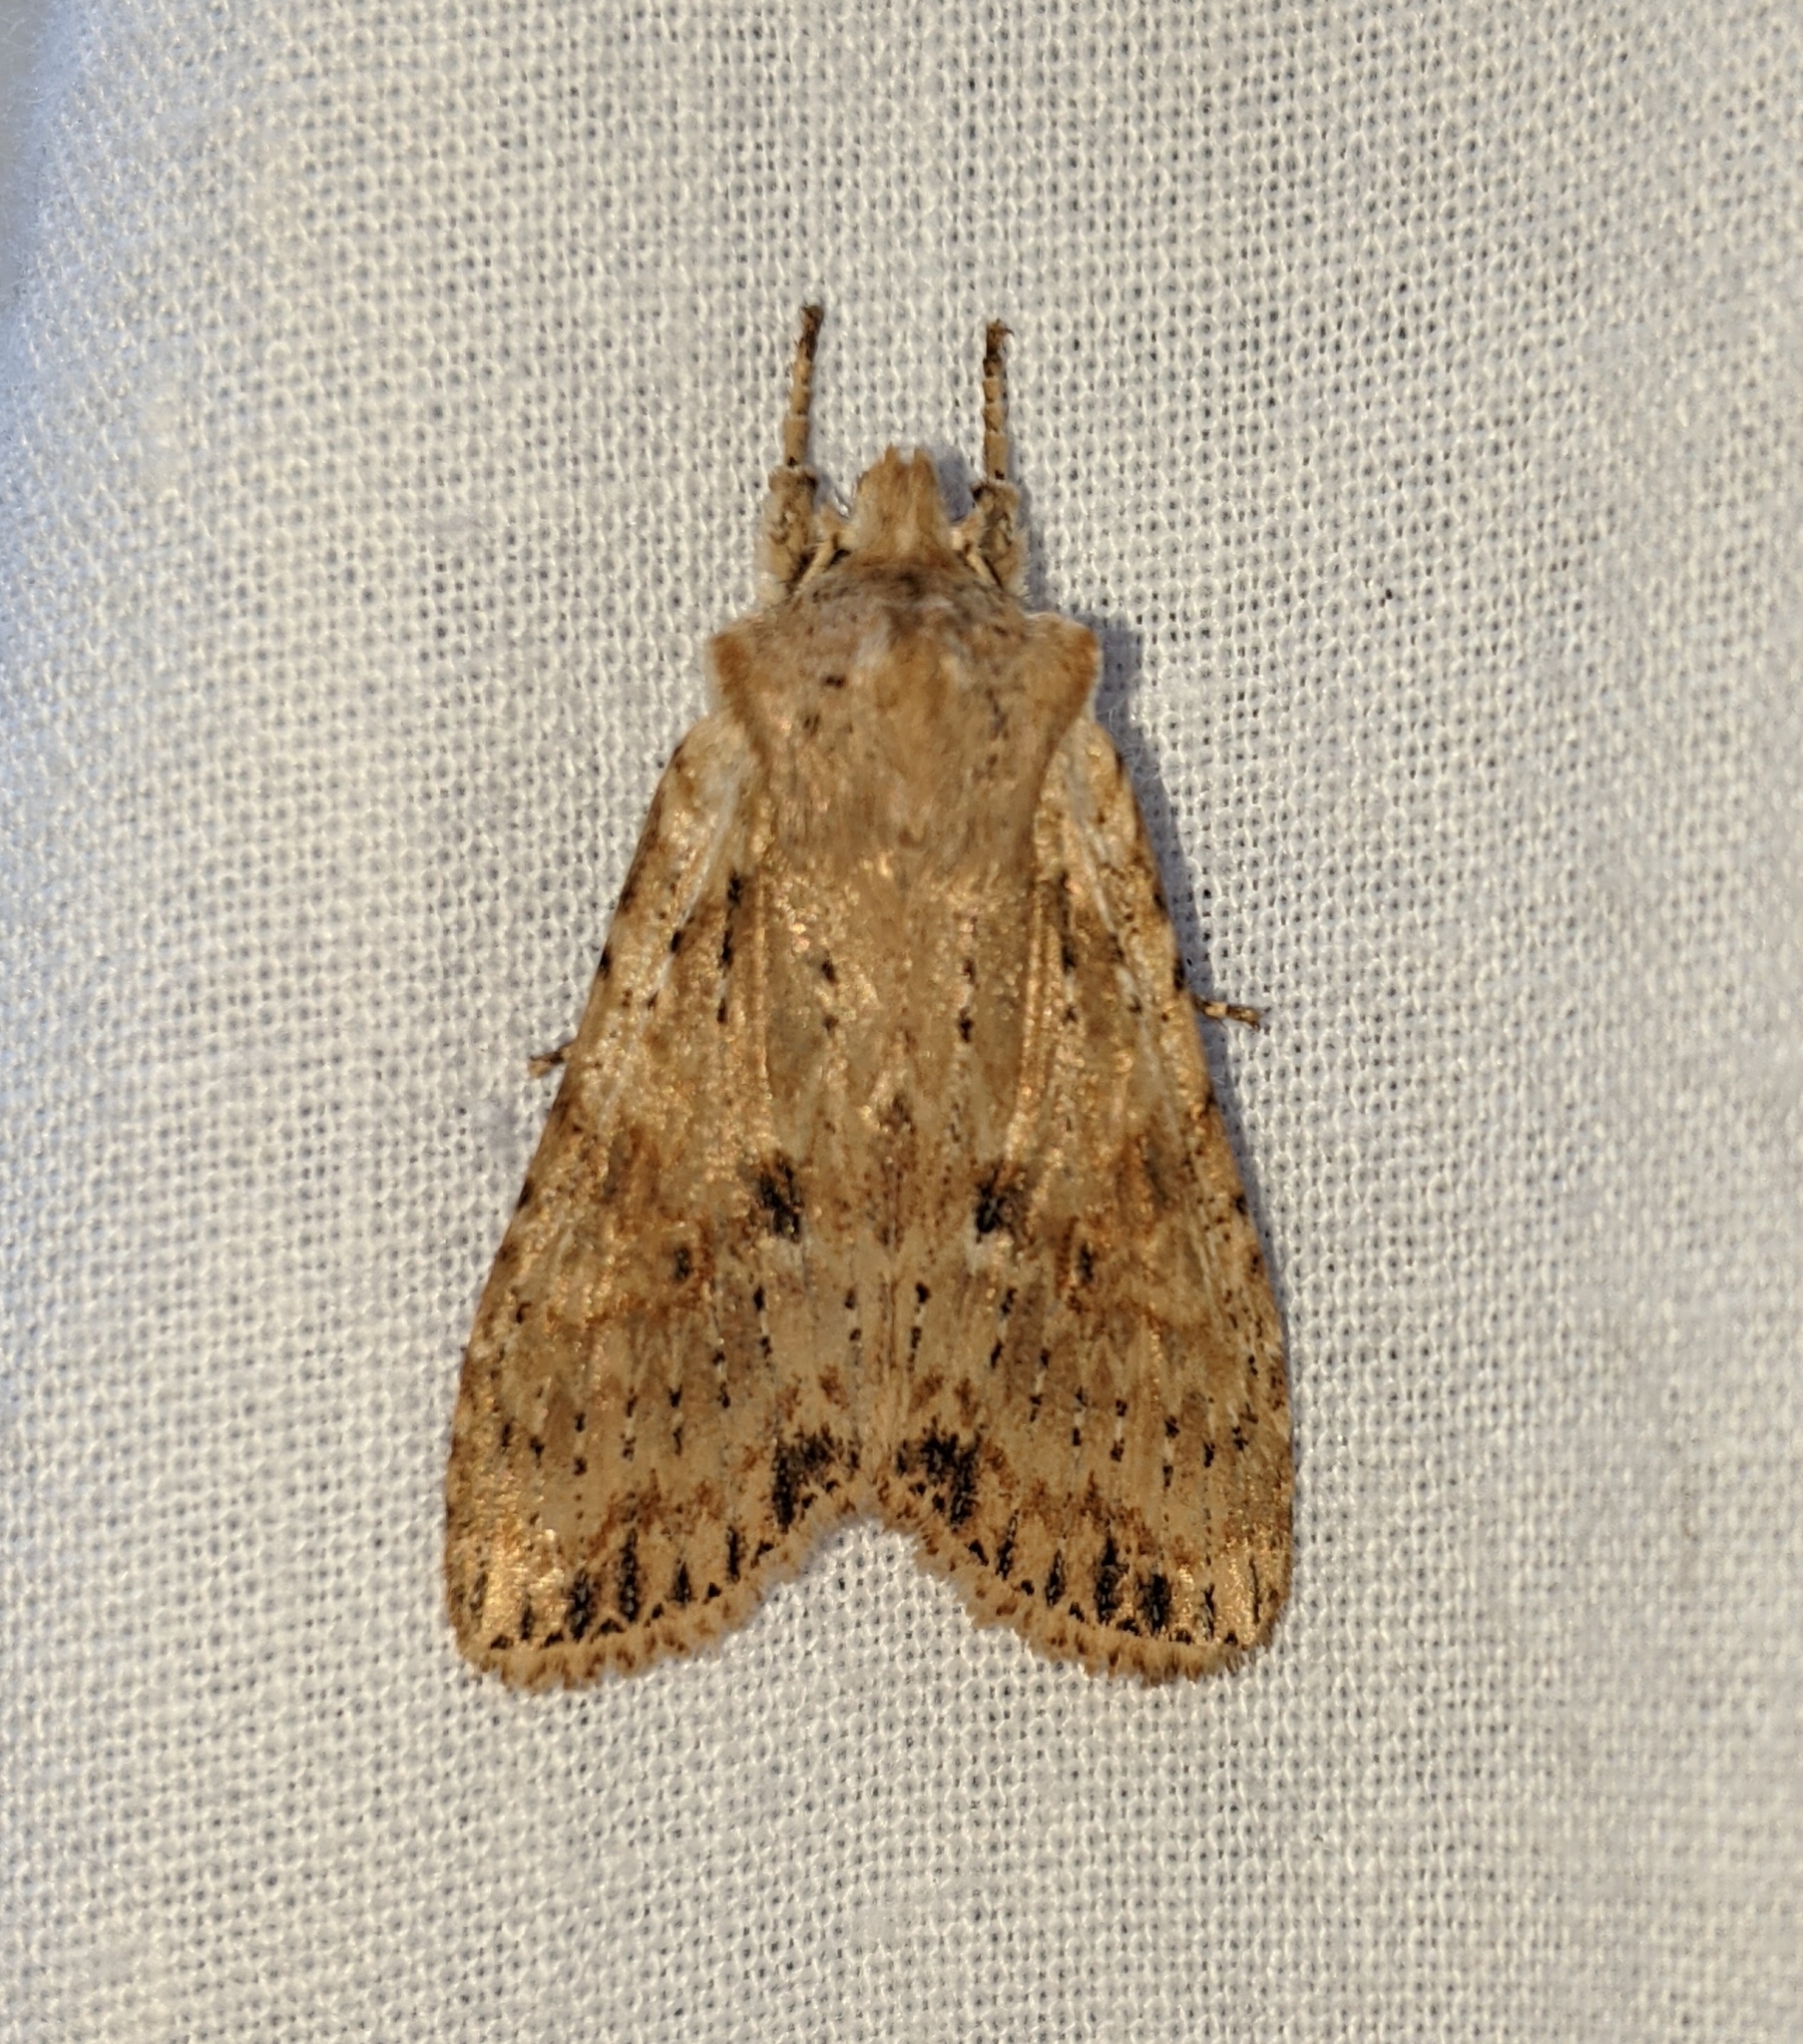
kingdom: Animalia
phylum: Arthropoda
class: Insecta
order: Lepidoptera
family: Noctuidae
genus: Lithophane
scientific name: Lithophane innominata
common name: Nameless pinion moth
